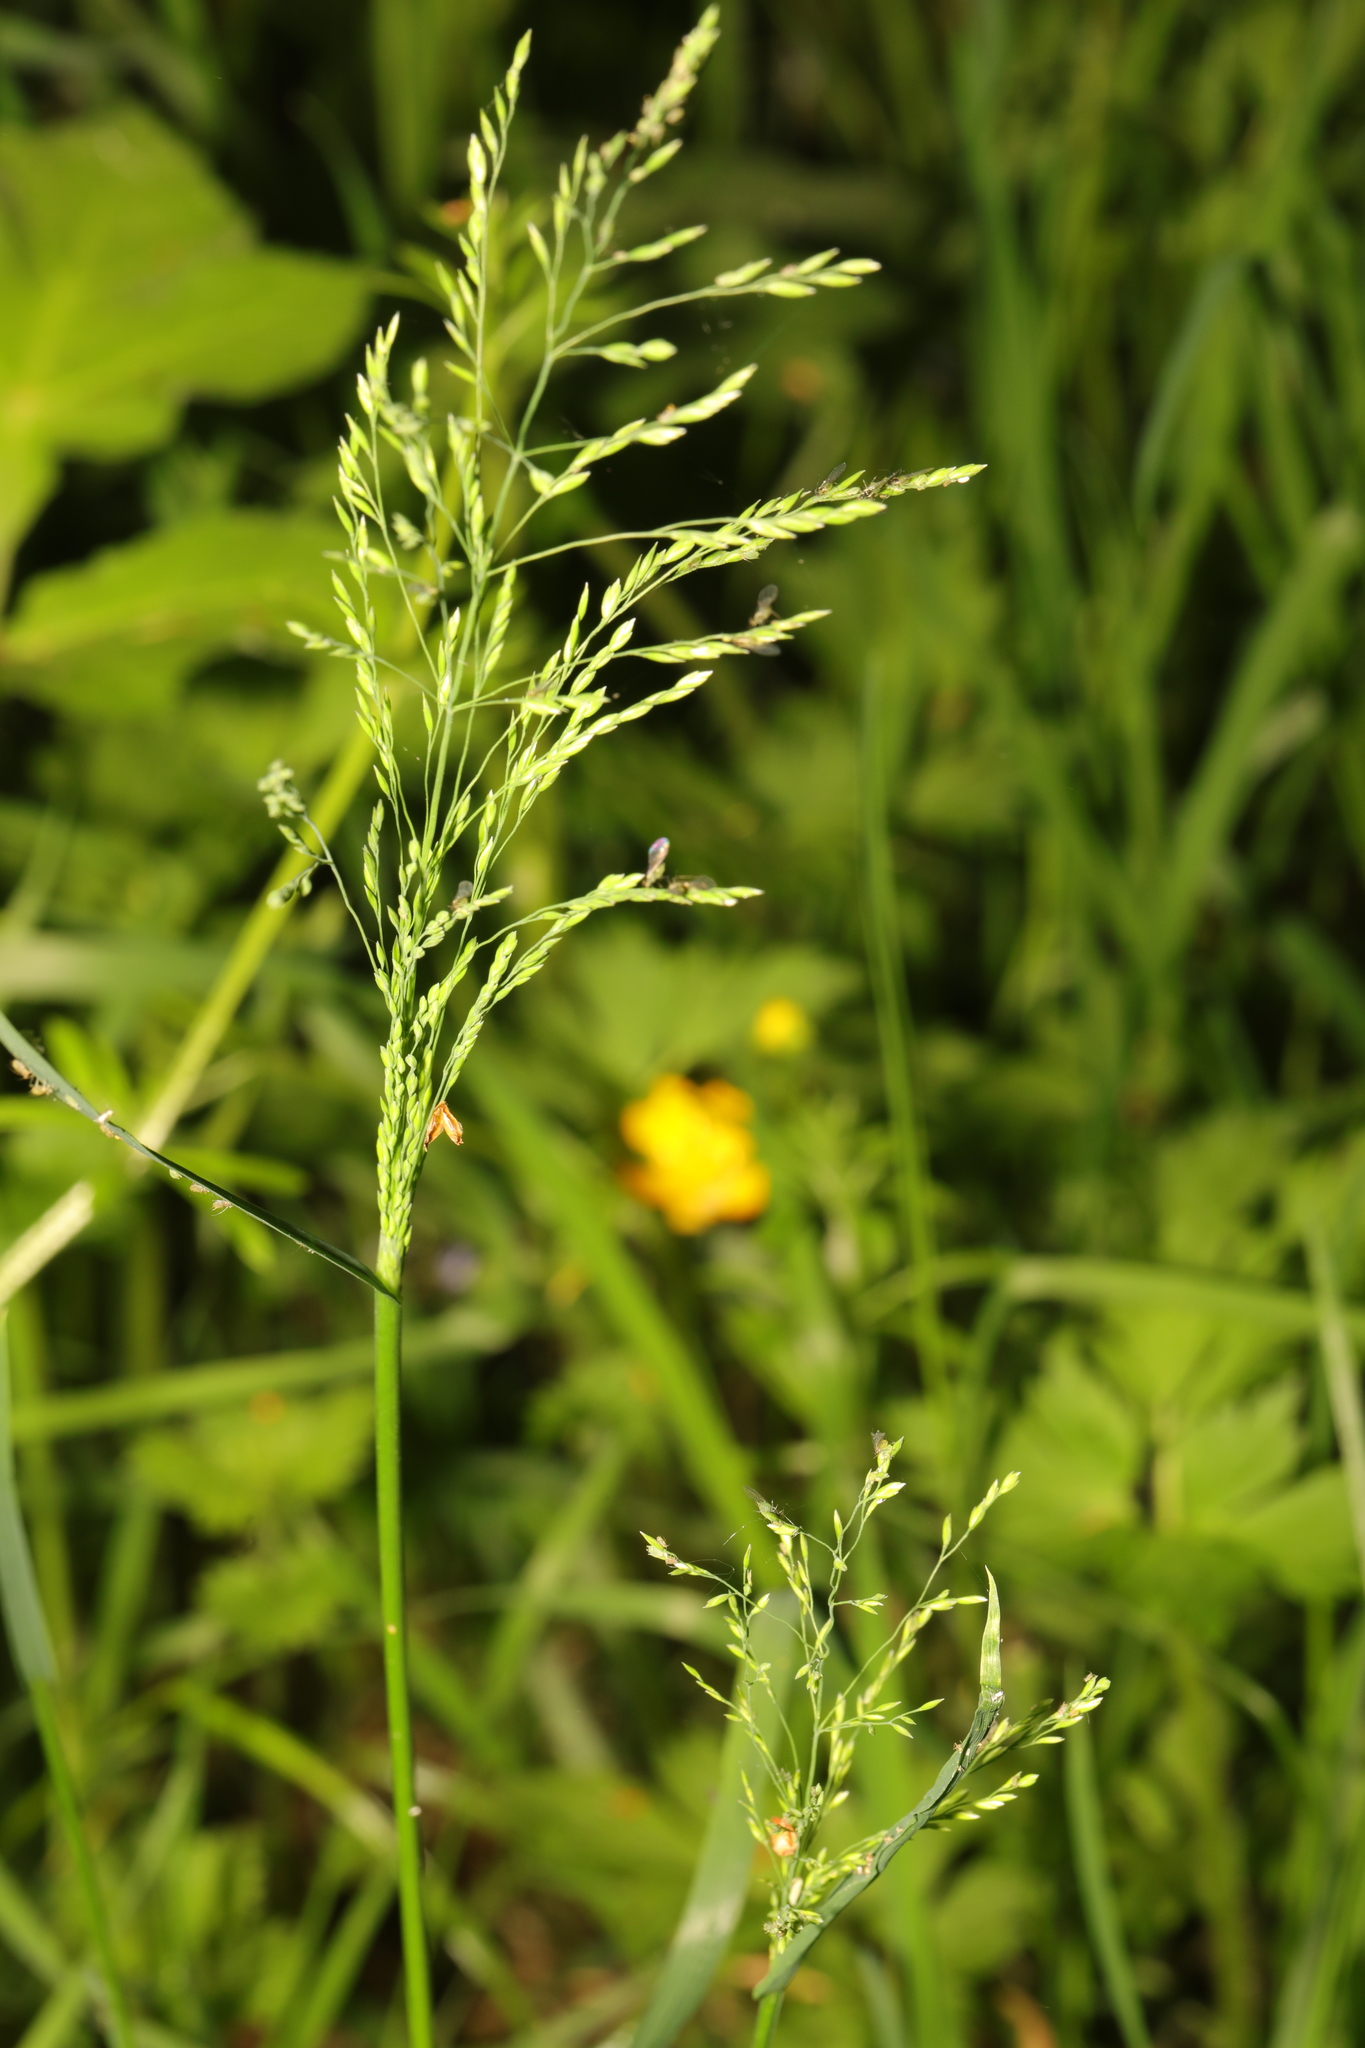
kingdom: Plantae
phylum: Tracheophyta
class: Liliopsida
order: Poales
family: Poaceae
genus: Poa
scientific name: Poa trivialis
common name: Rough bluegrass
